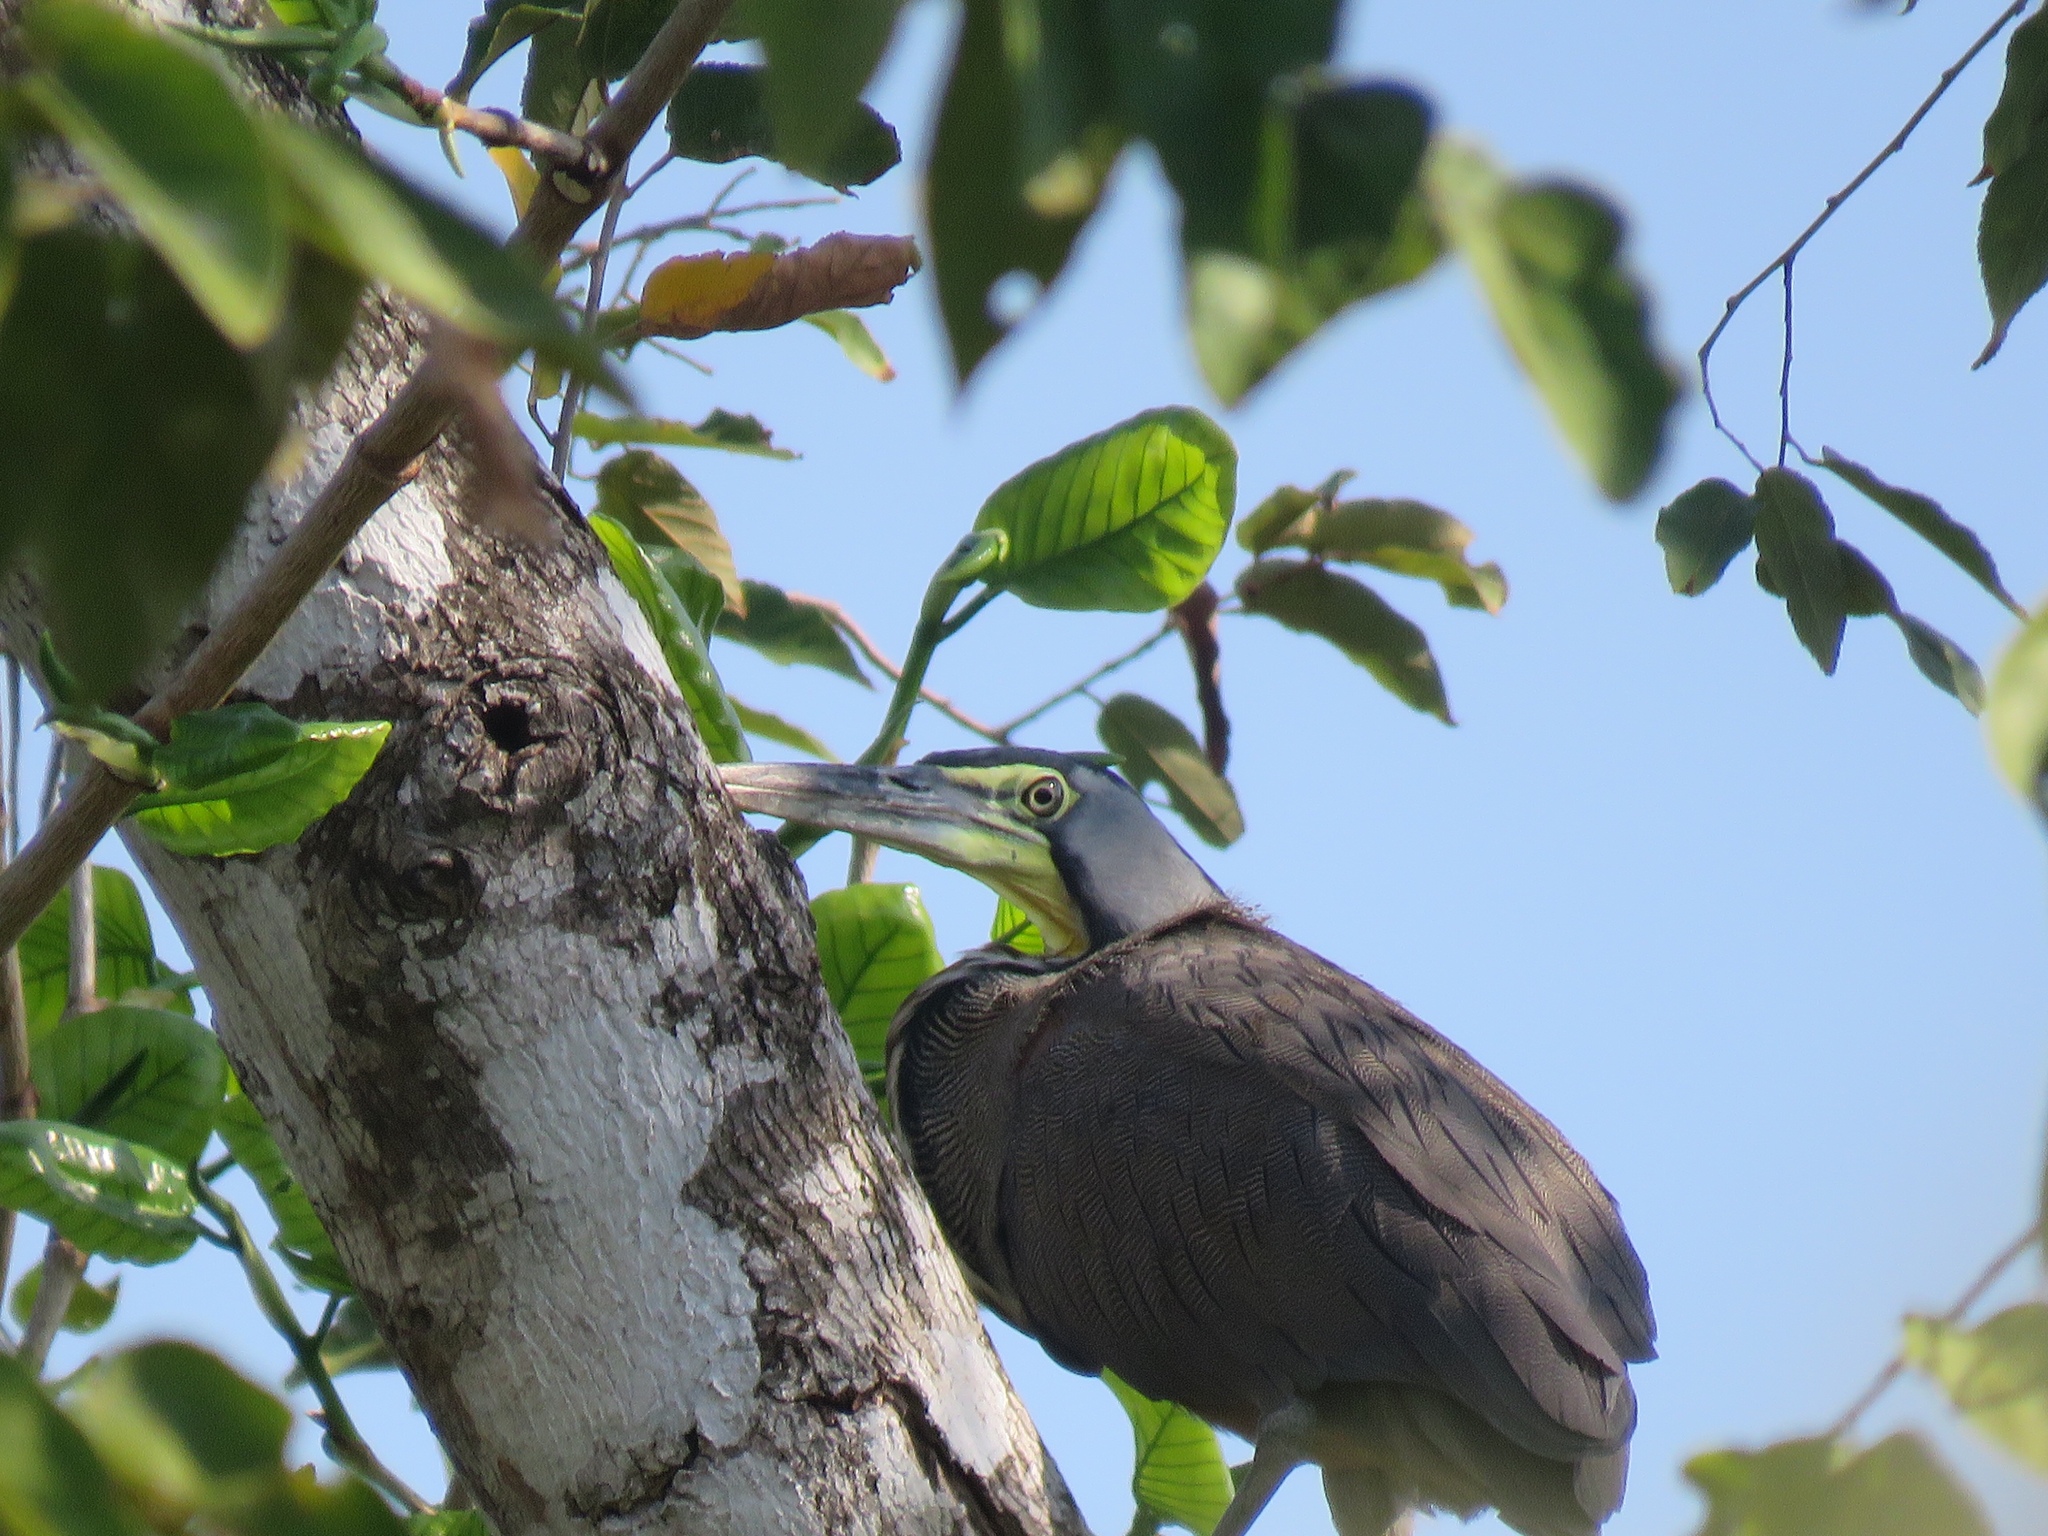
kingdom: Animalia
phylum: Chordata
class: Aves
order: Pelecaniformes
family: Ardeidae
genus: Tigrisoma
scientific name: Tigrisoma mexicanum
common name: Bare-throated tiger-heron
